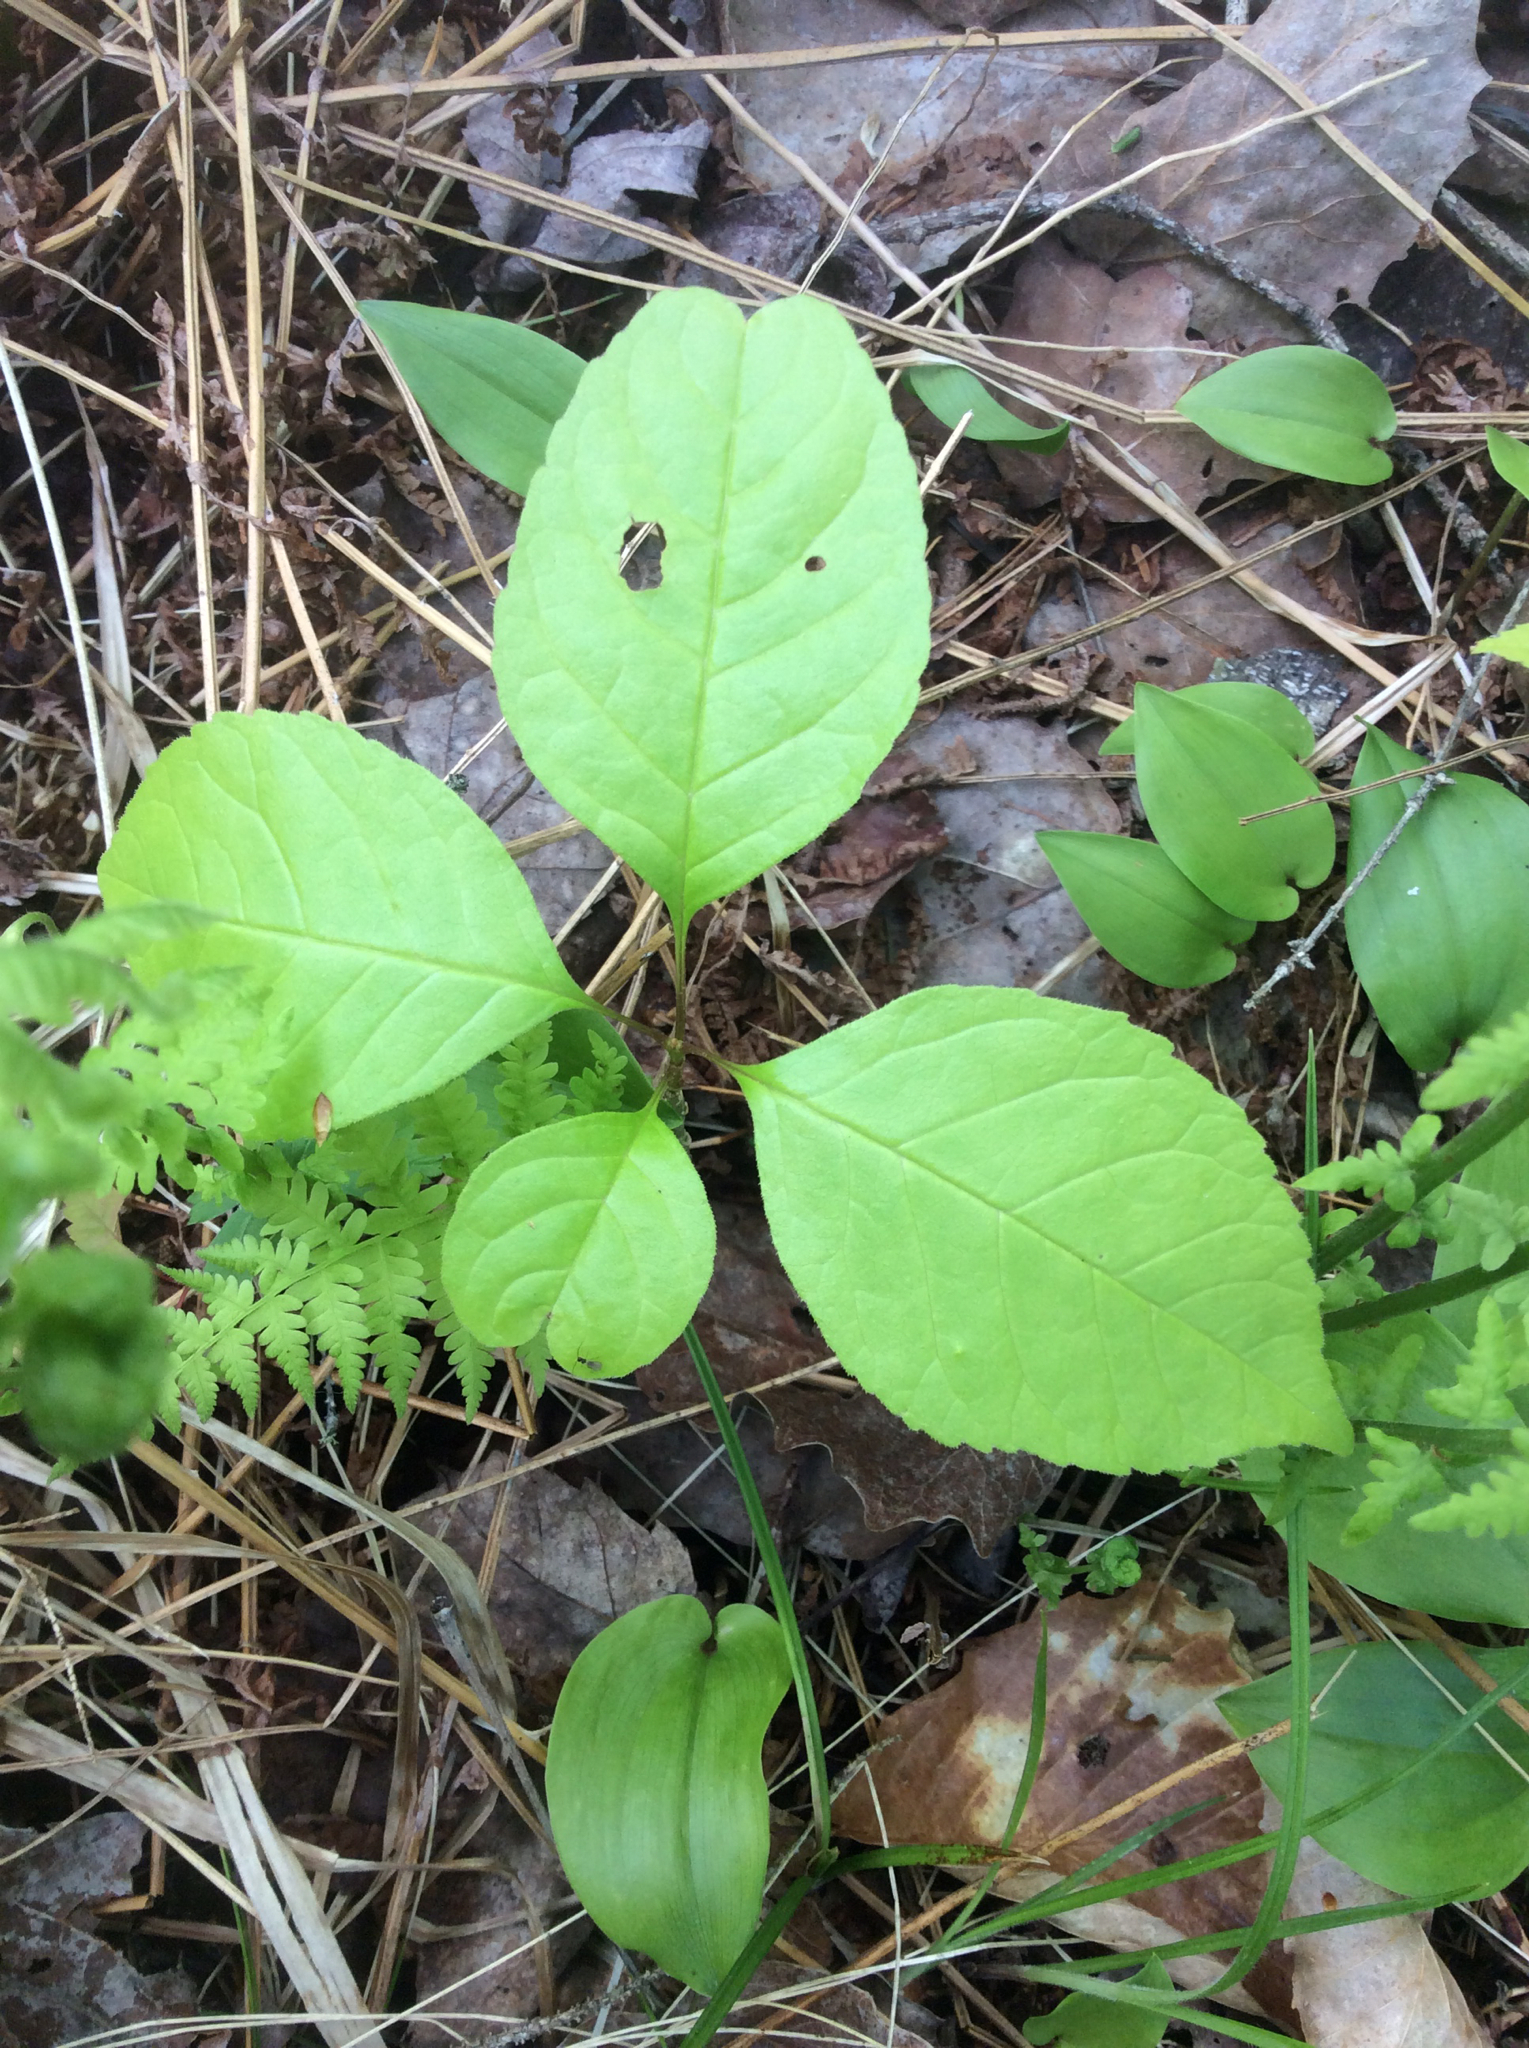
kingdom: Plantae
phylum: Tracheophyta
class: Magnoliopsida
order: Lamiales
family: Oleaceae
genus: Fraxinus
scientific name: Fraxinus americana
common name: White ash
